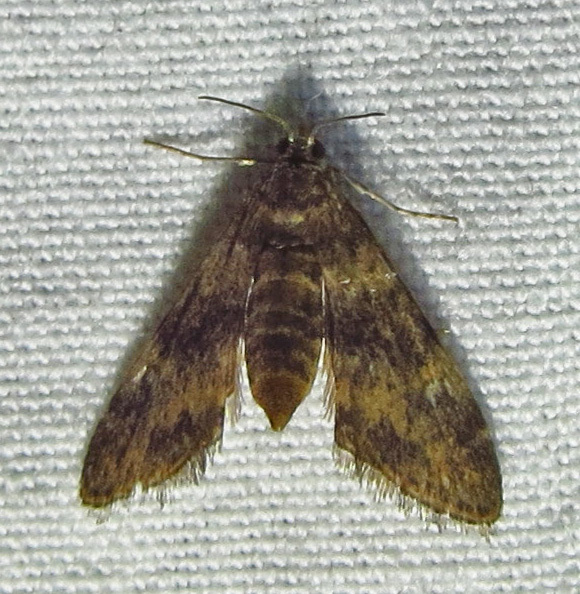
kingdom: Animalia
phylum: Arthropoda
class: Insecta
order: Lepidoptera
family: Crambidae
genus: Elophila
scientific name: Elophila obliteralis
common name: Waterlily leafcutter moth
